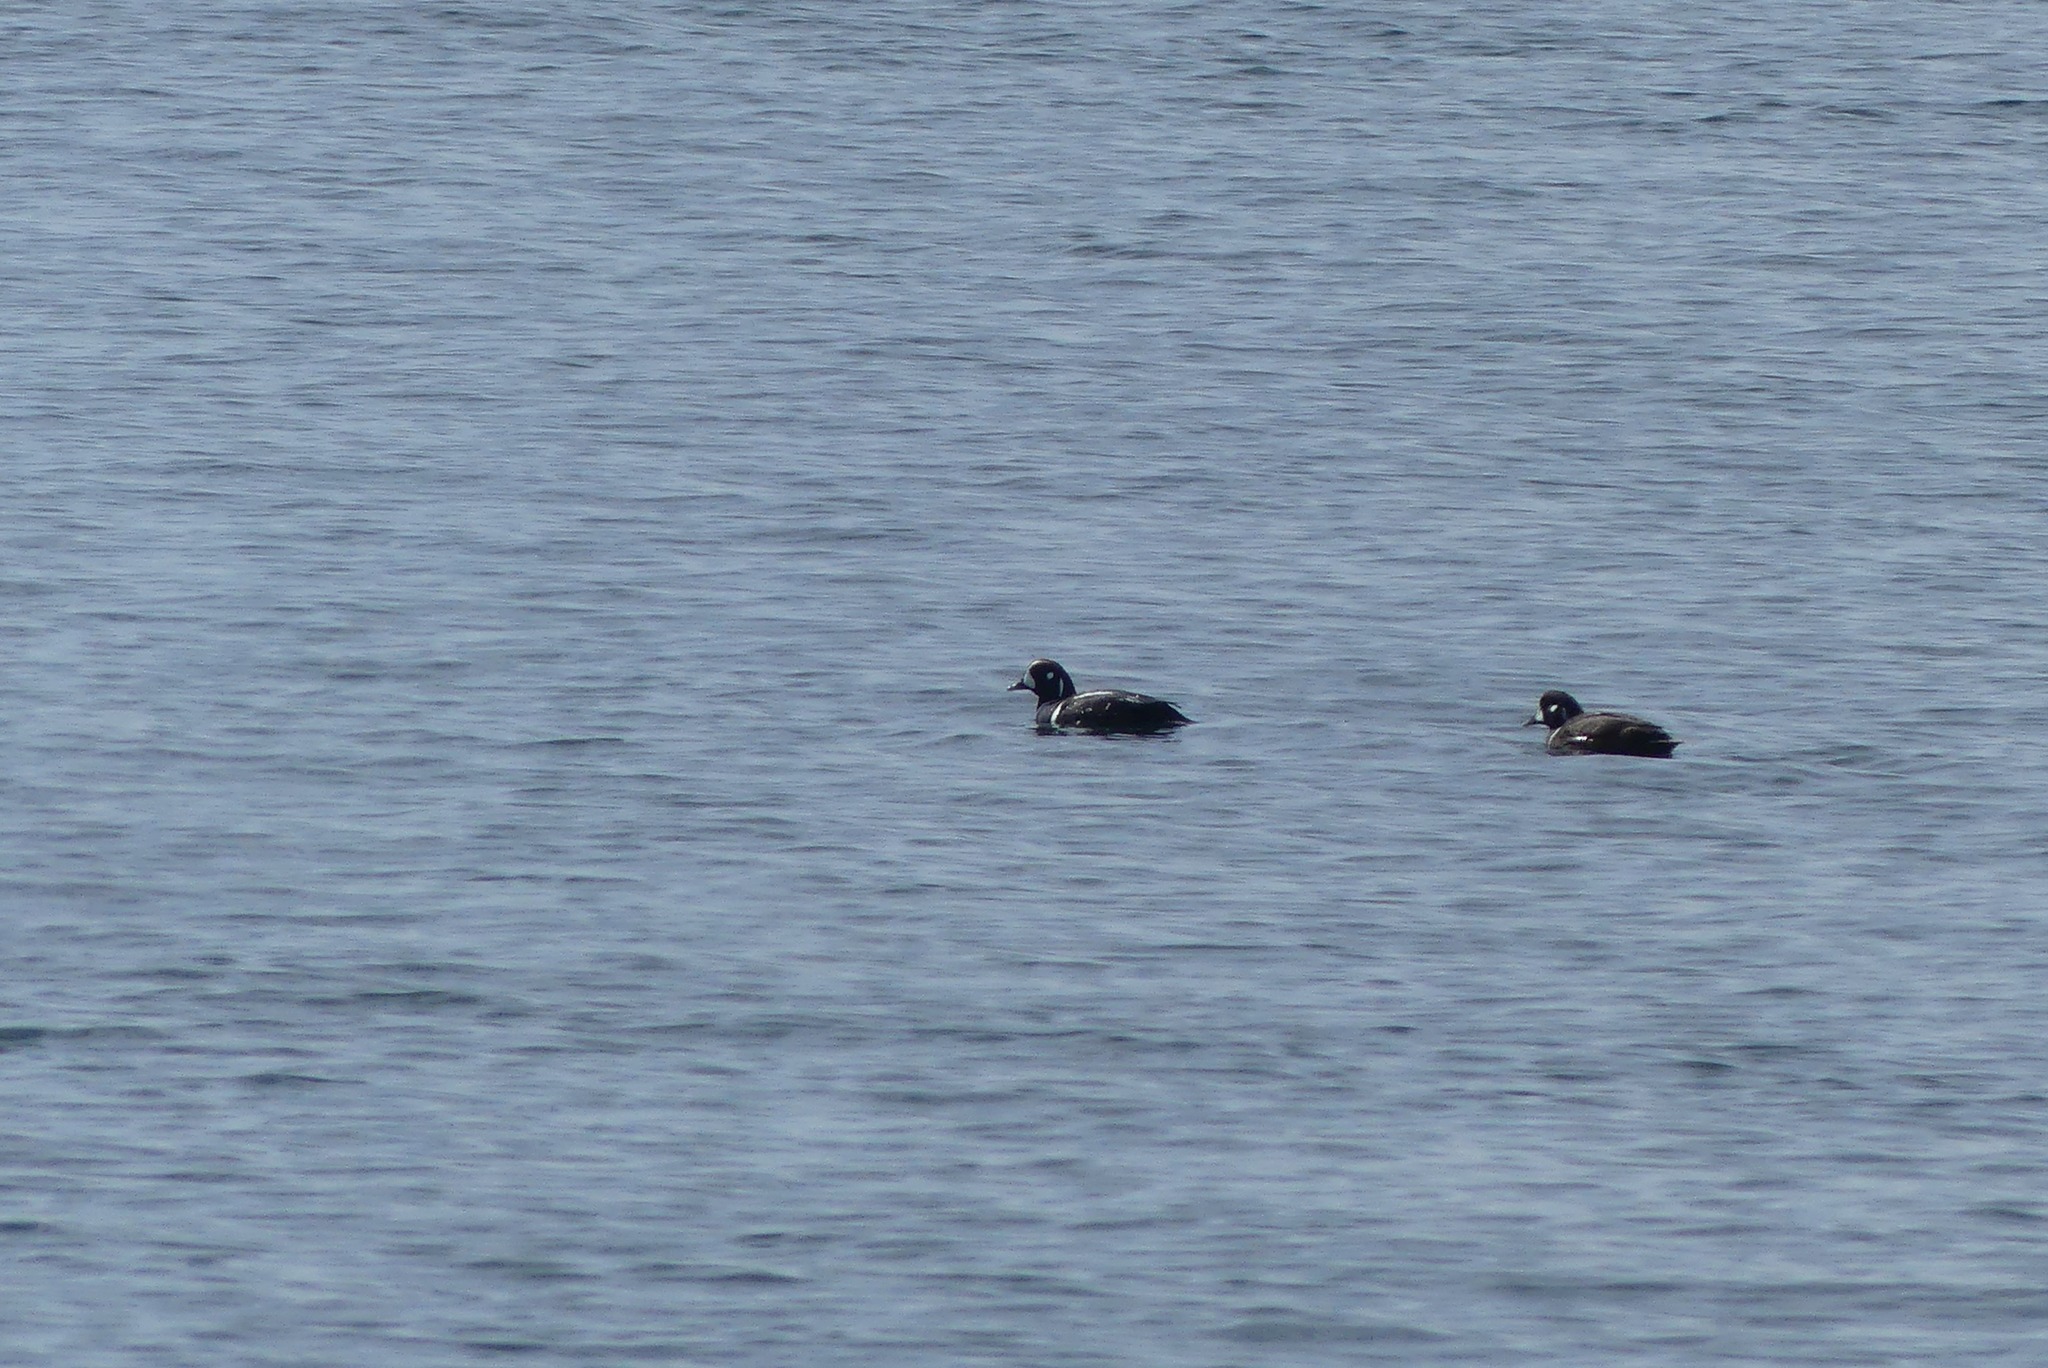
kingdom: Animalia
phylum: Chordata
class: Aves
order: Anseriformes
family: Anatidae
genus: Histrionicus
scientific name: Histrionicus histrionicus
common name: Harlequin duck
